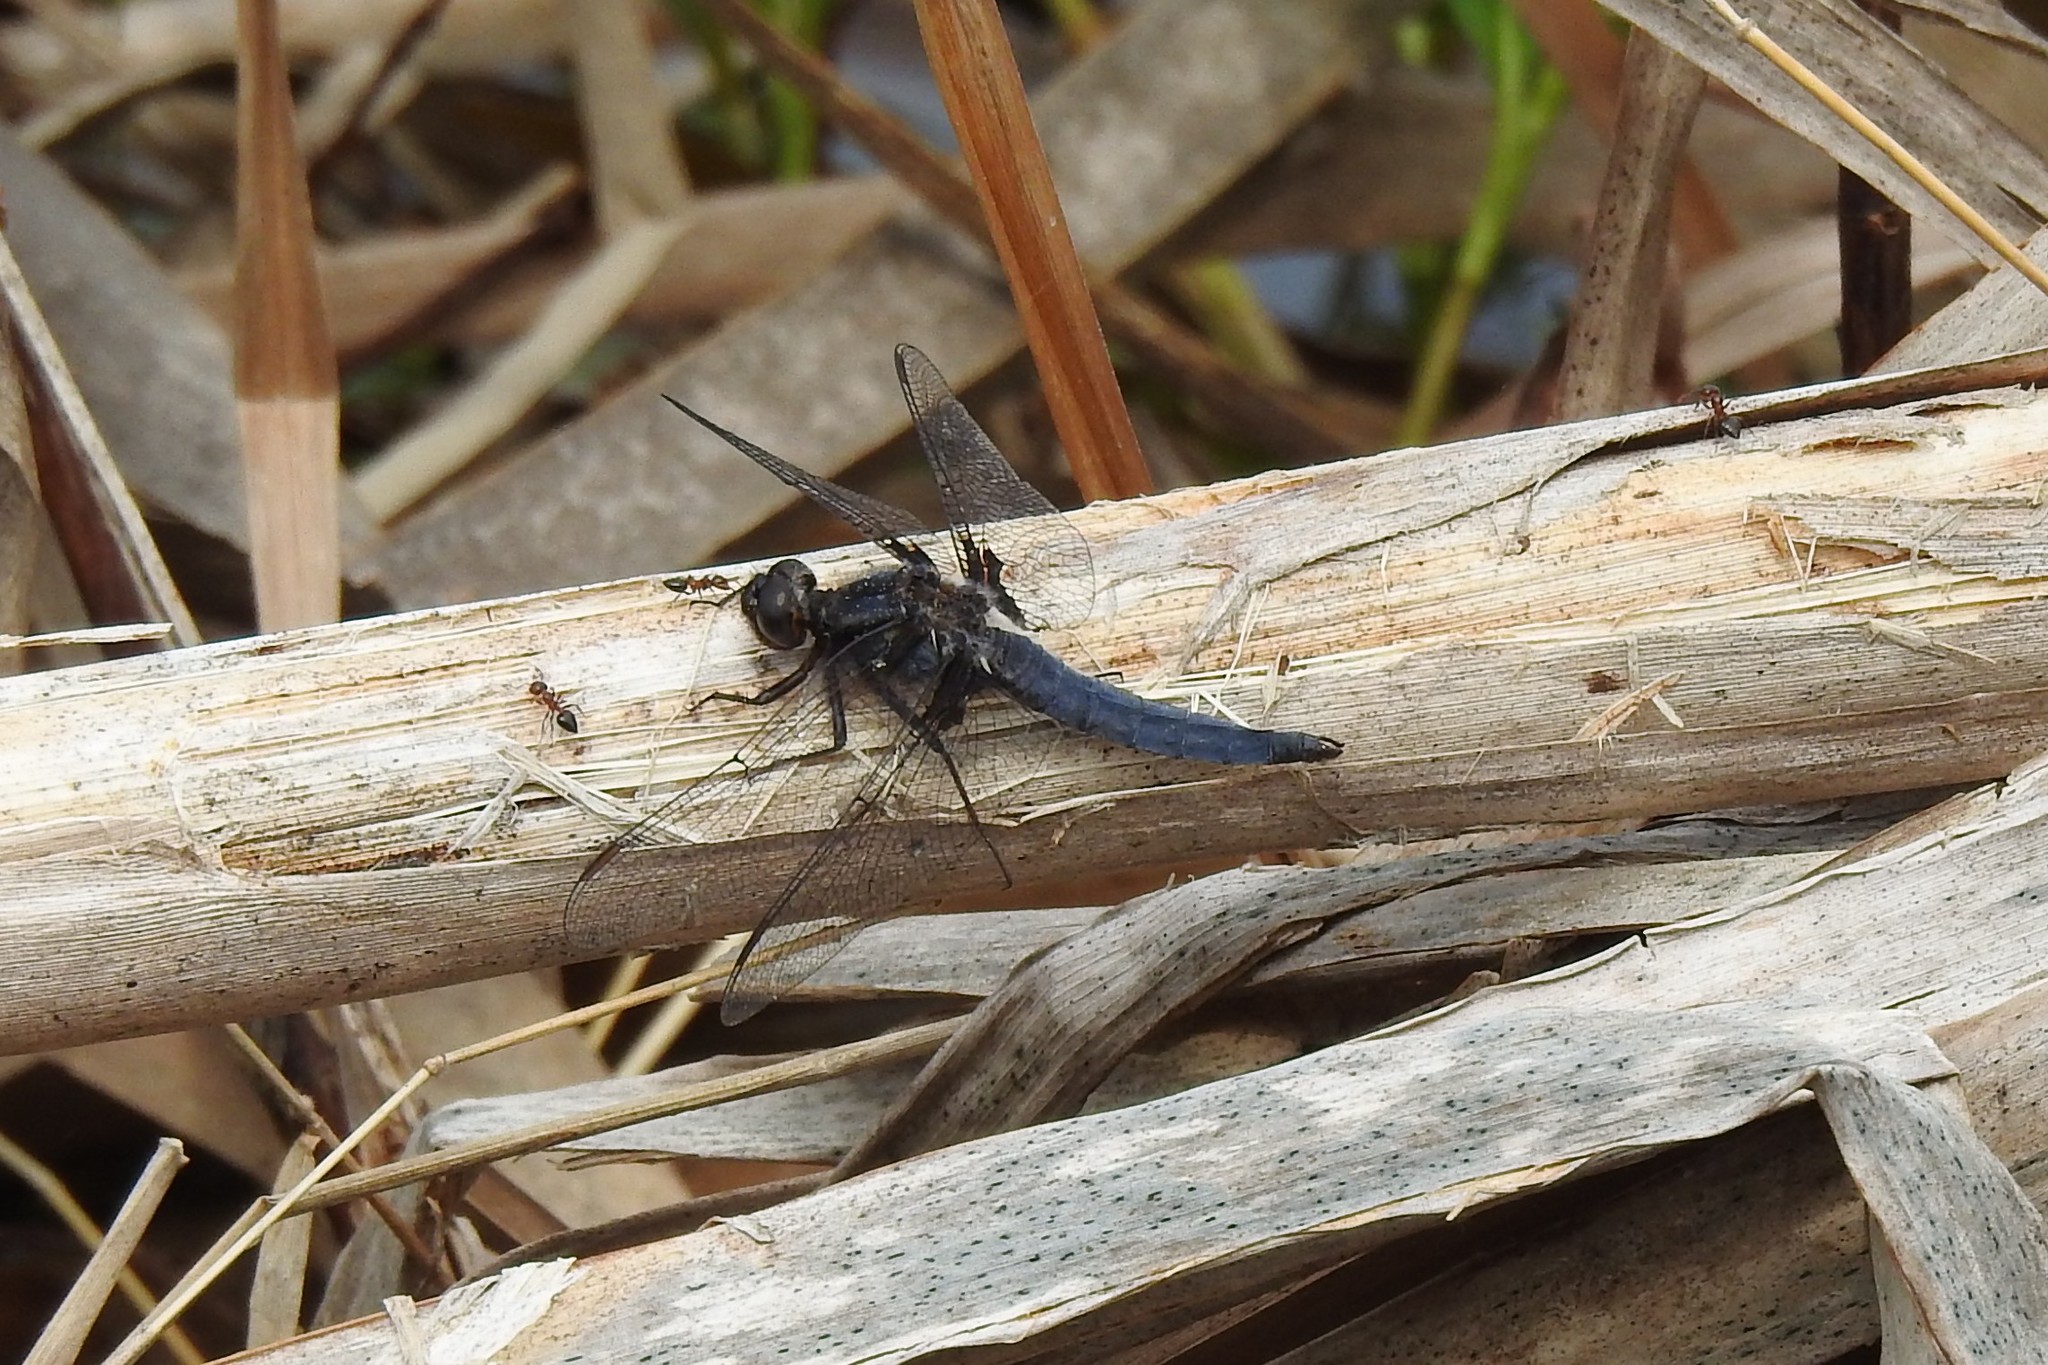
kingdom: Animalia
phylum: Arthropoda
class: Insecta
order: Odonata
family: Libellulidae
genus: Ladona
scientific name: Ladona deplanata
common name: Blue corporal
